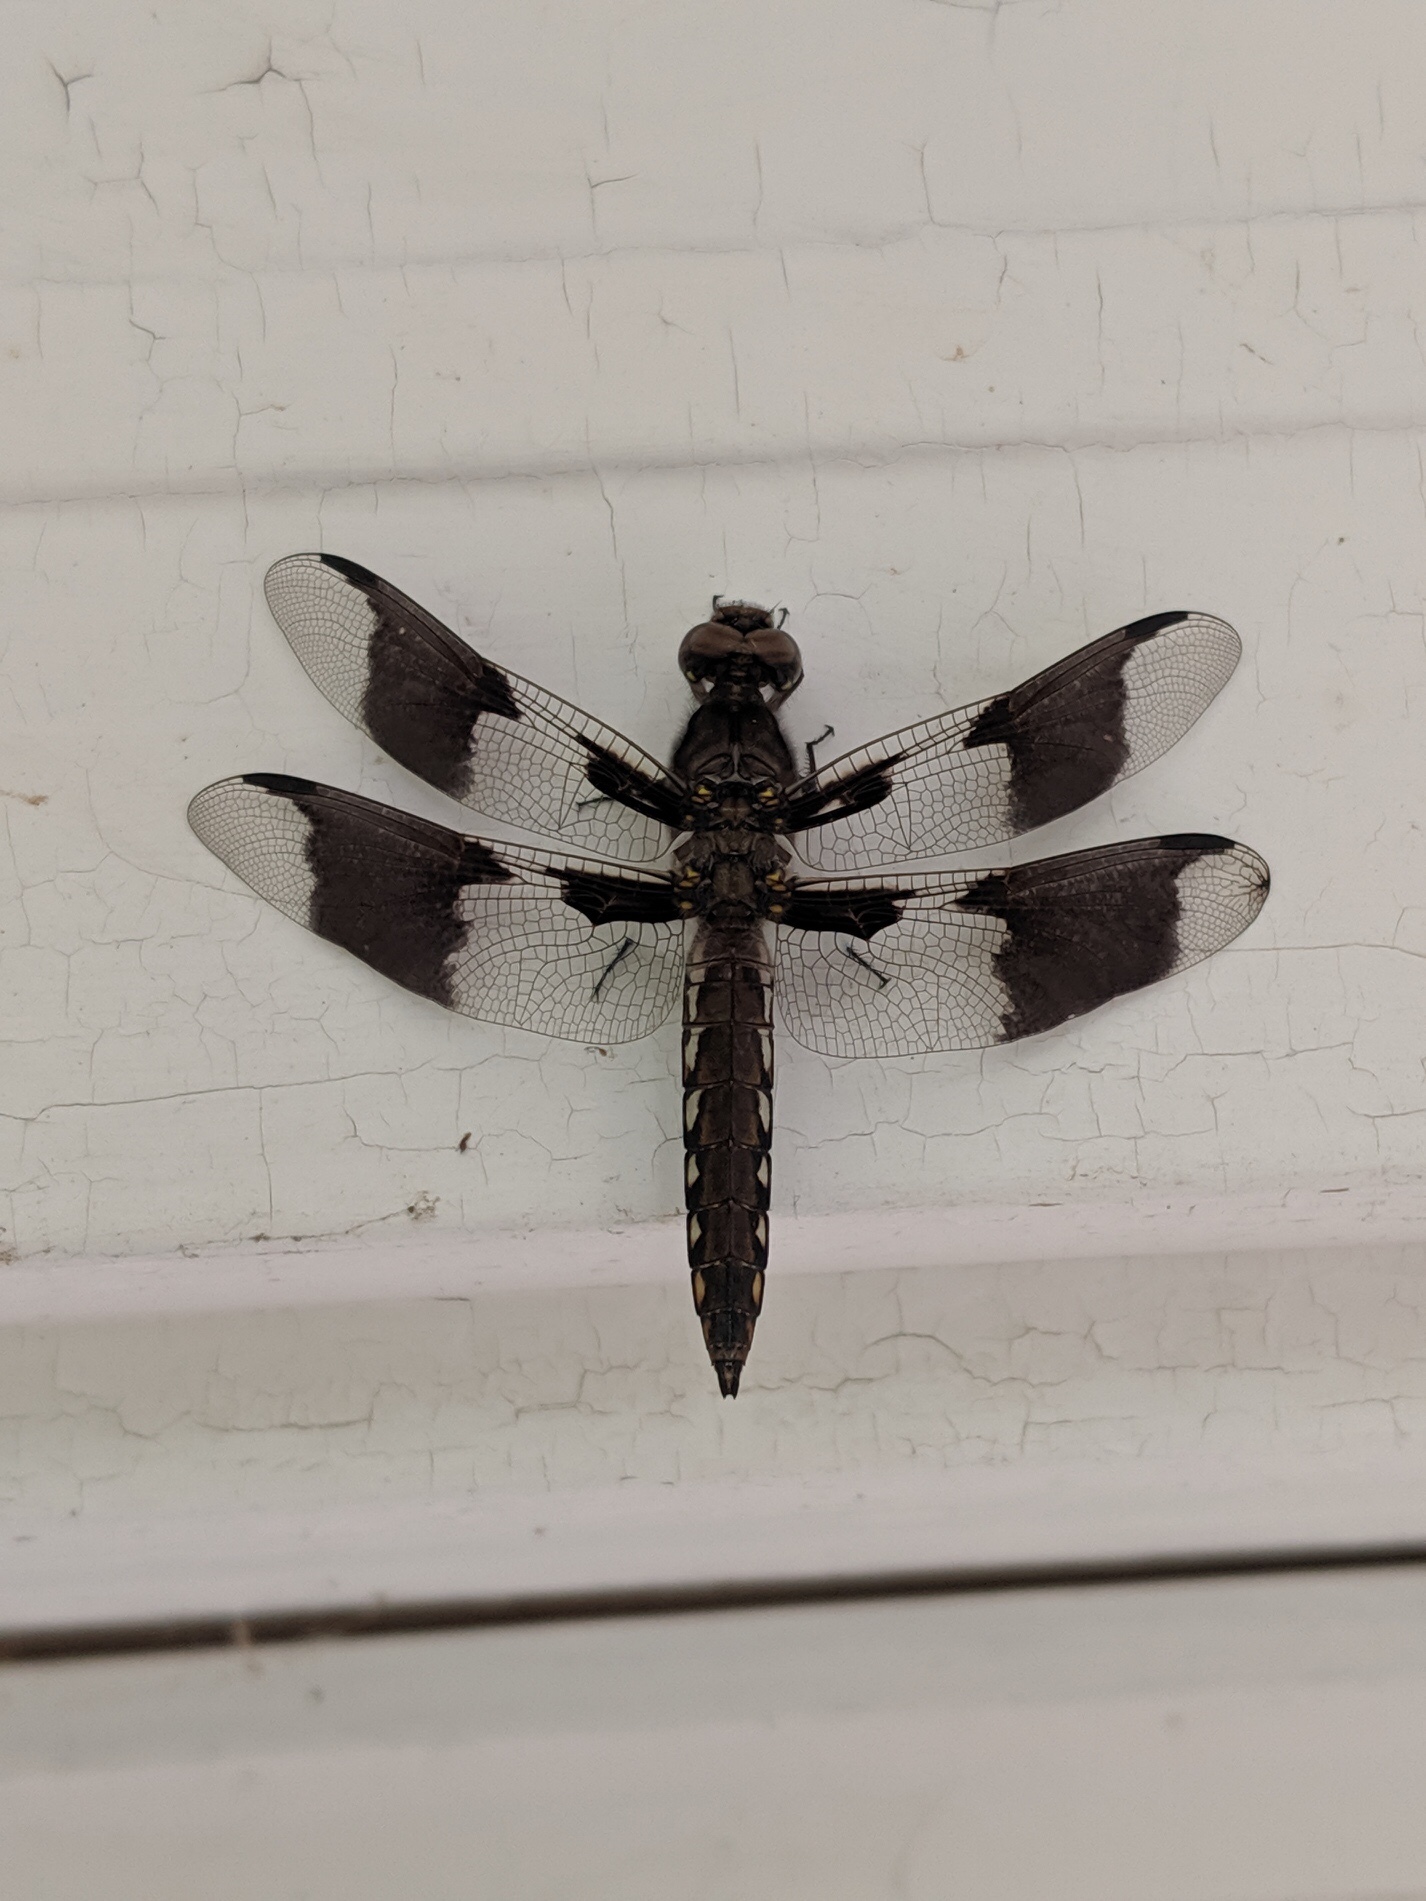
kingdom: Animalia
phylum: Arthropoda
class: Insecta
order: Odonata
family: Libellulidae
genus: Plathemis
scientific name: Plathemis lydia
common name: Common whitetail
